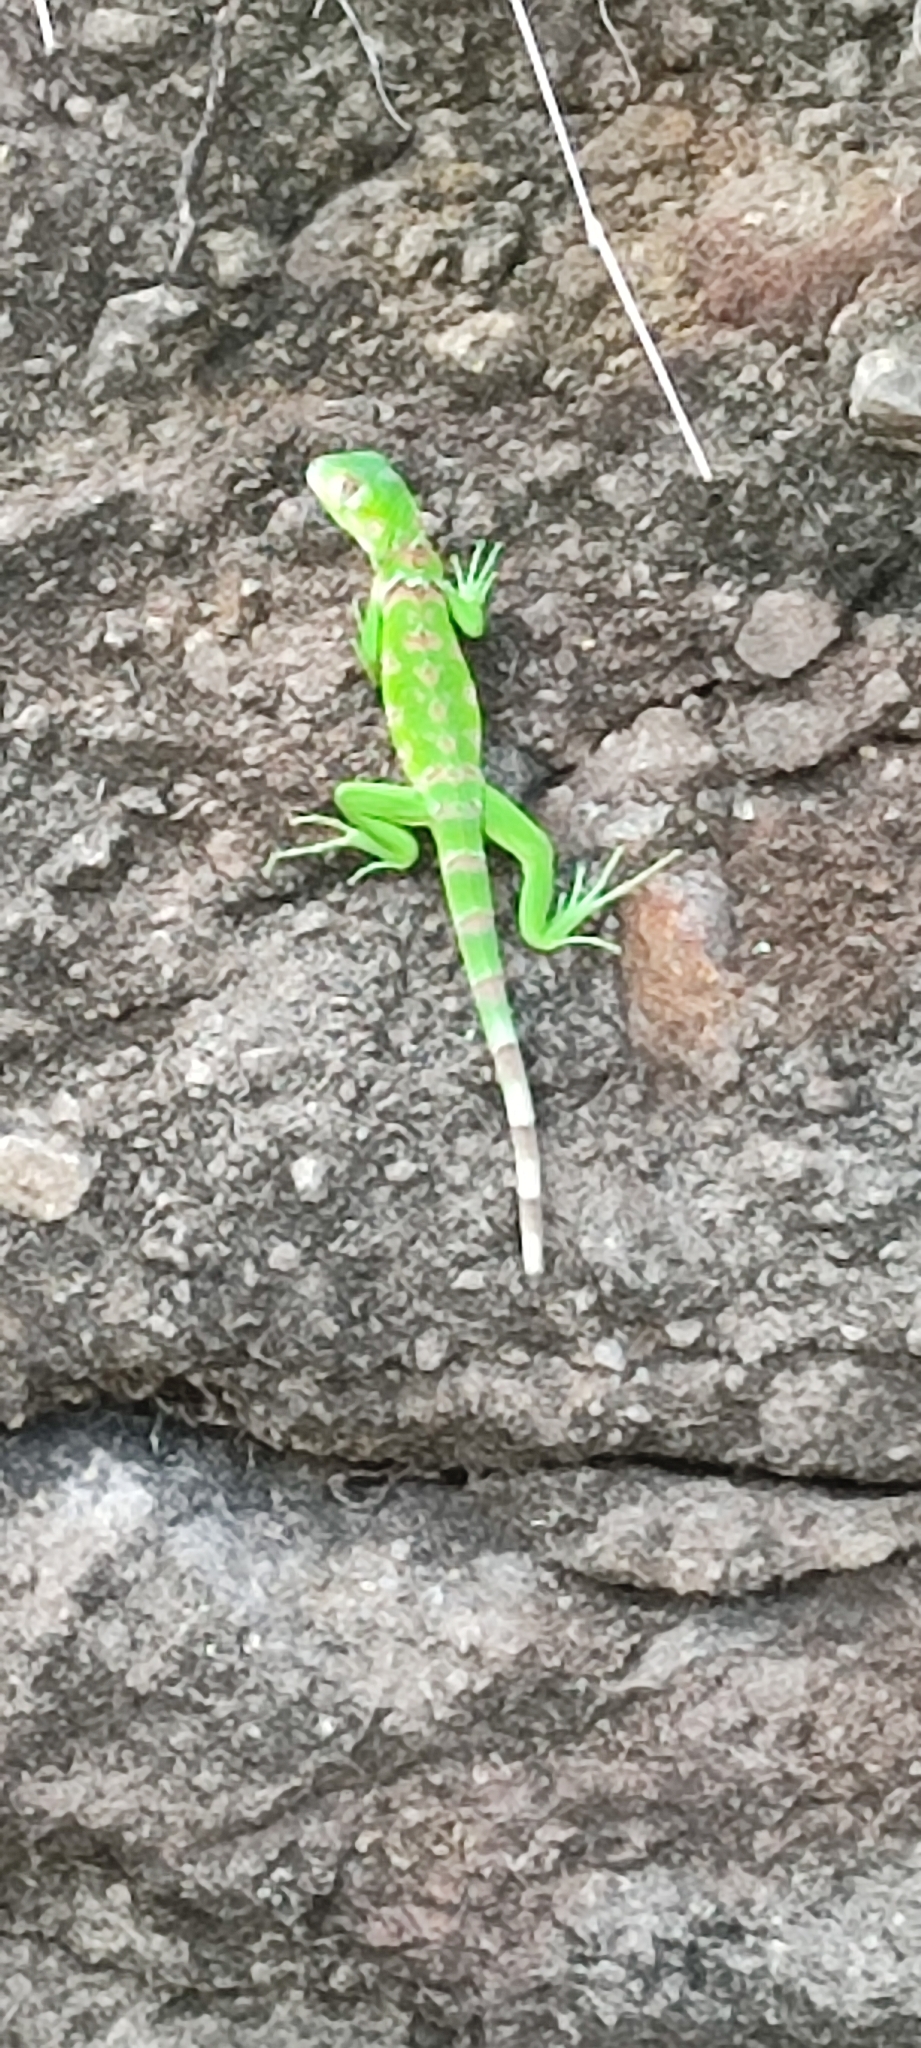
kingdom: Animalia
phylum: Chordata
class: Squamata
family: Iguanidae
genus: Iguana
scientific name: Iguana iguana
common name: Green iguana
